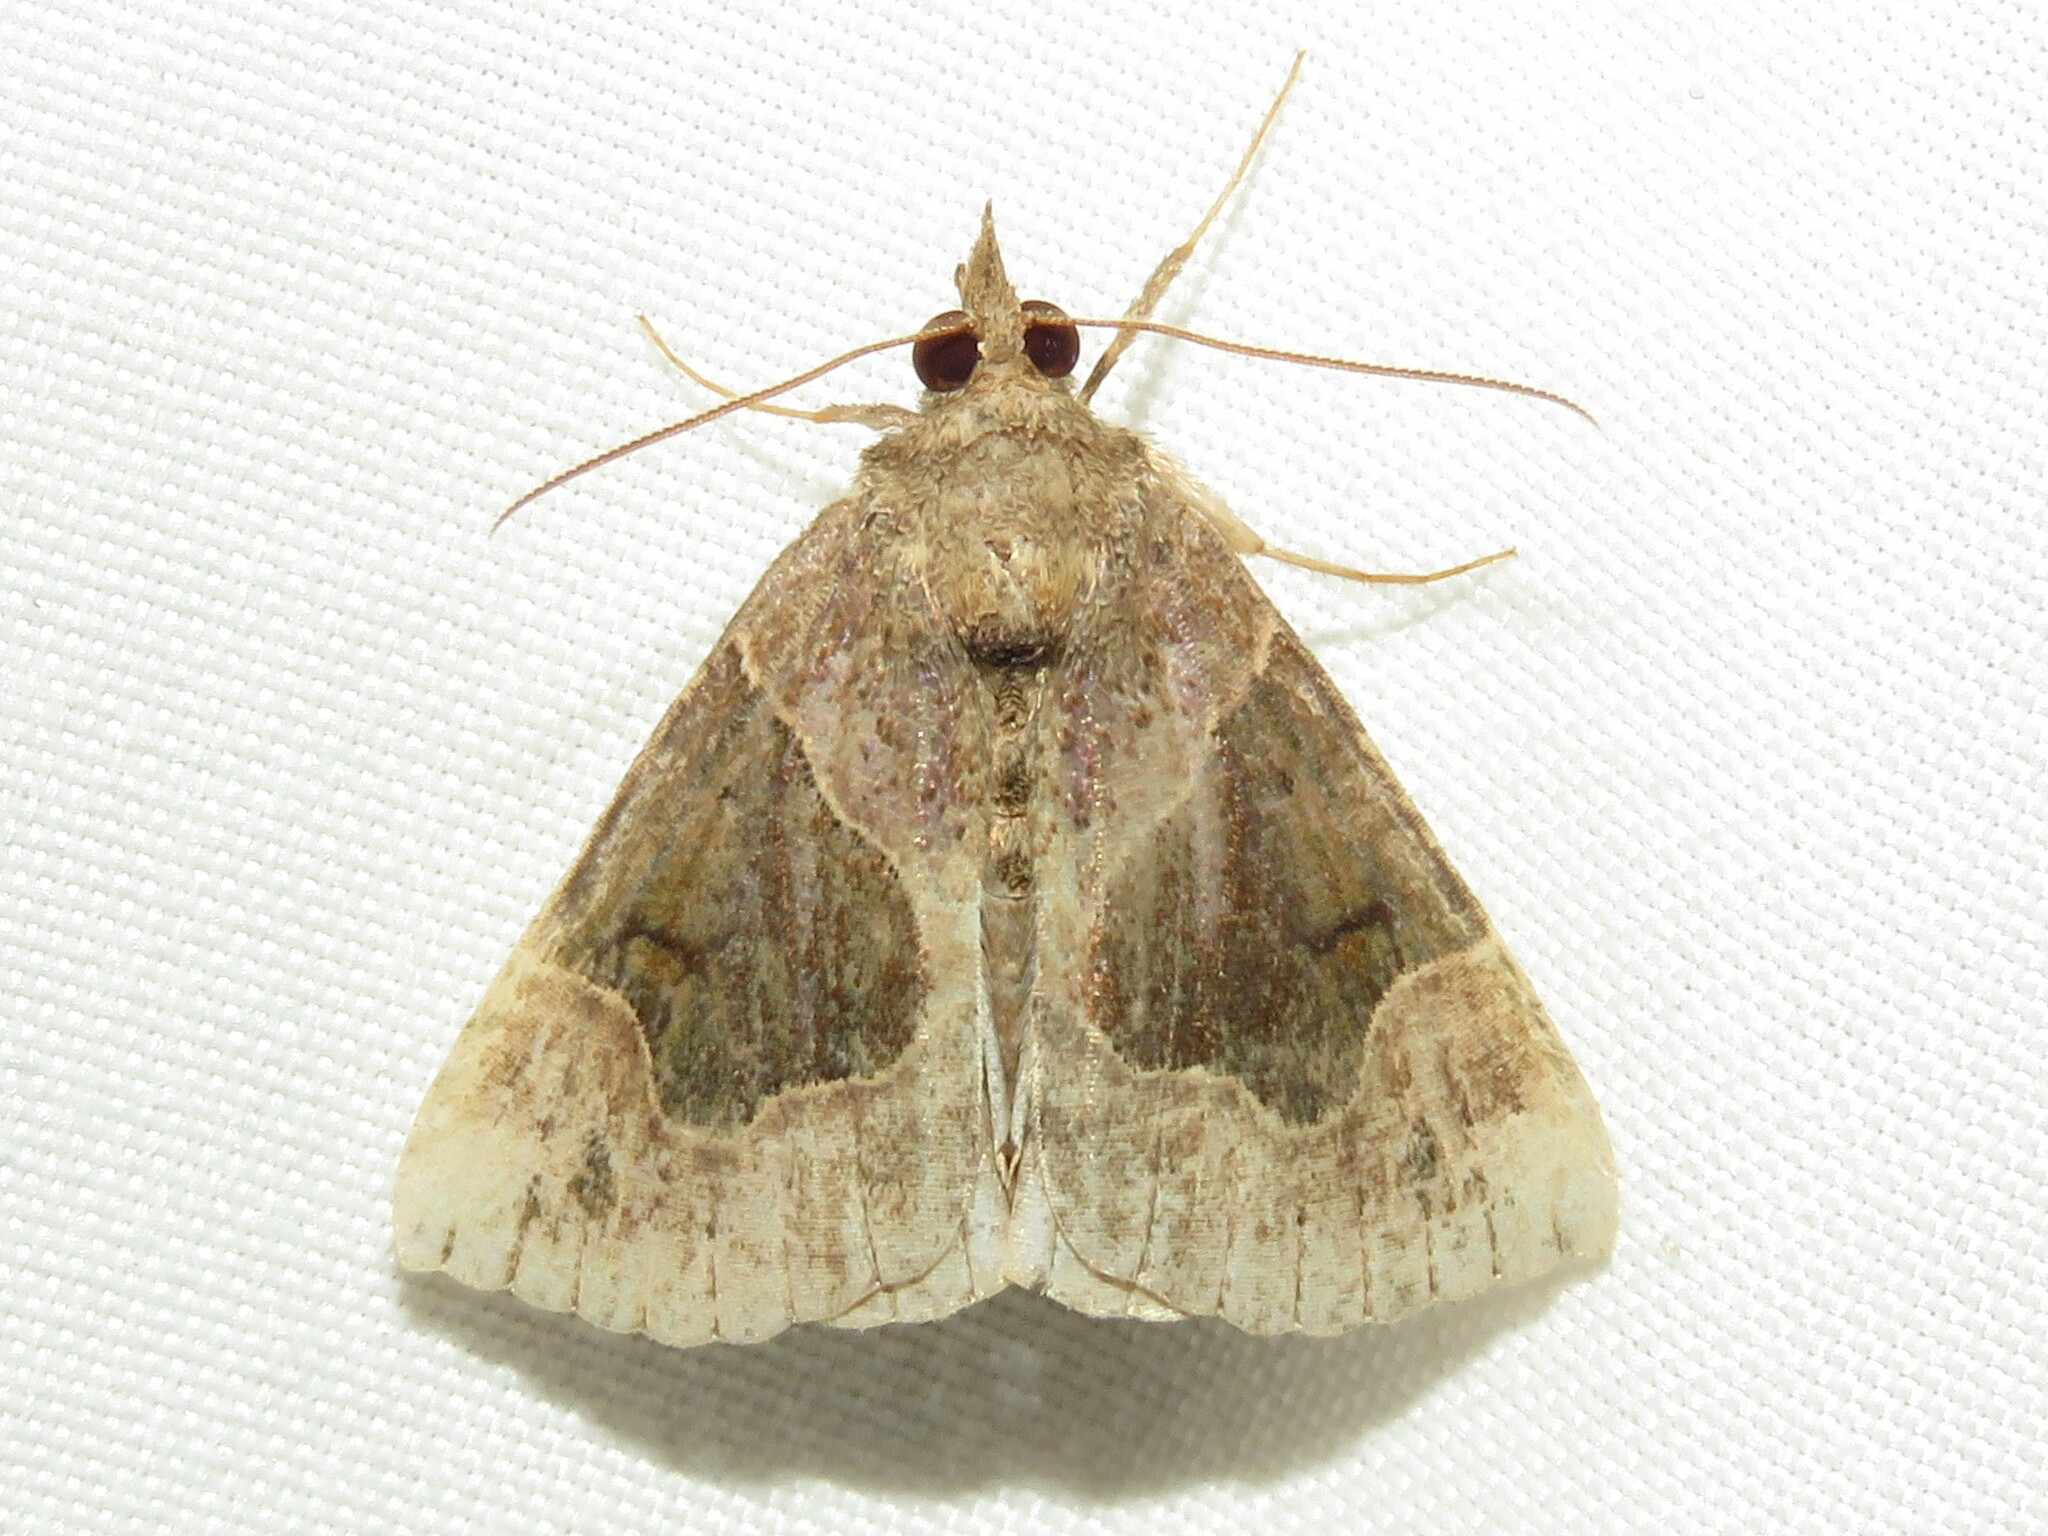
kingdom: Animalia
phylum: Arthropoda
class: Insecta
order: Lepidoptera
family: Erebidae
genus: Hypena
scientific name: Hypena manalis
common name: Flowing-line bomolocha moth
